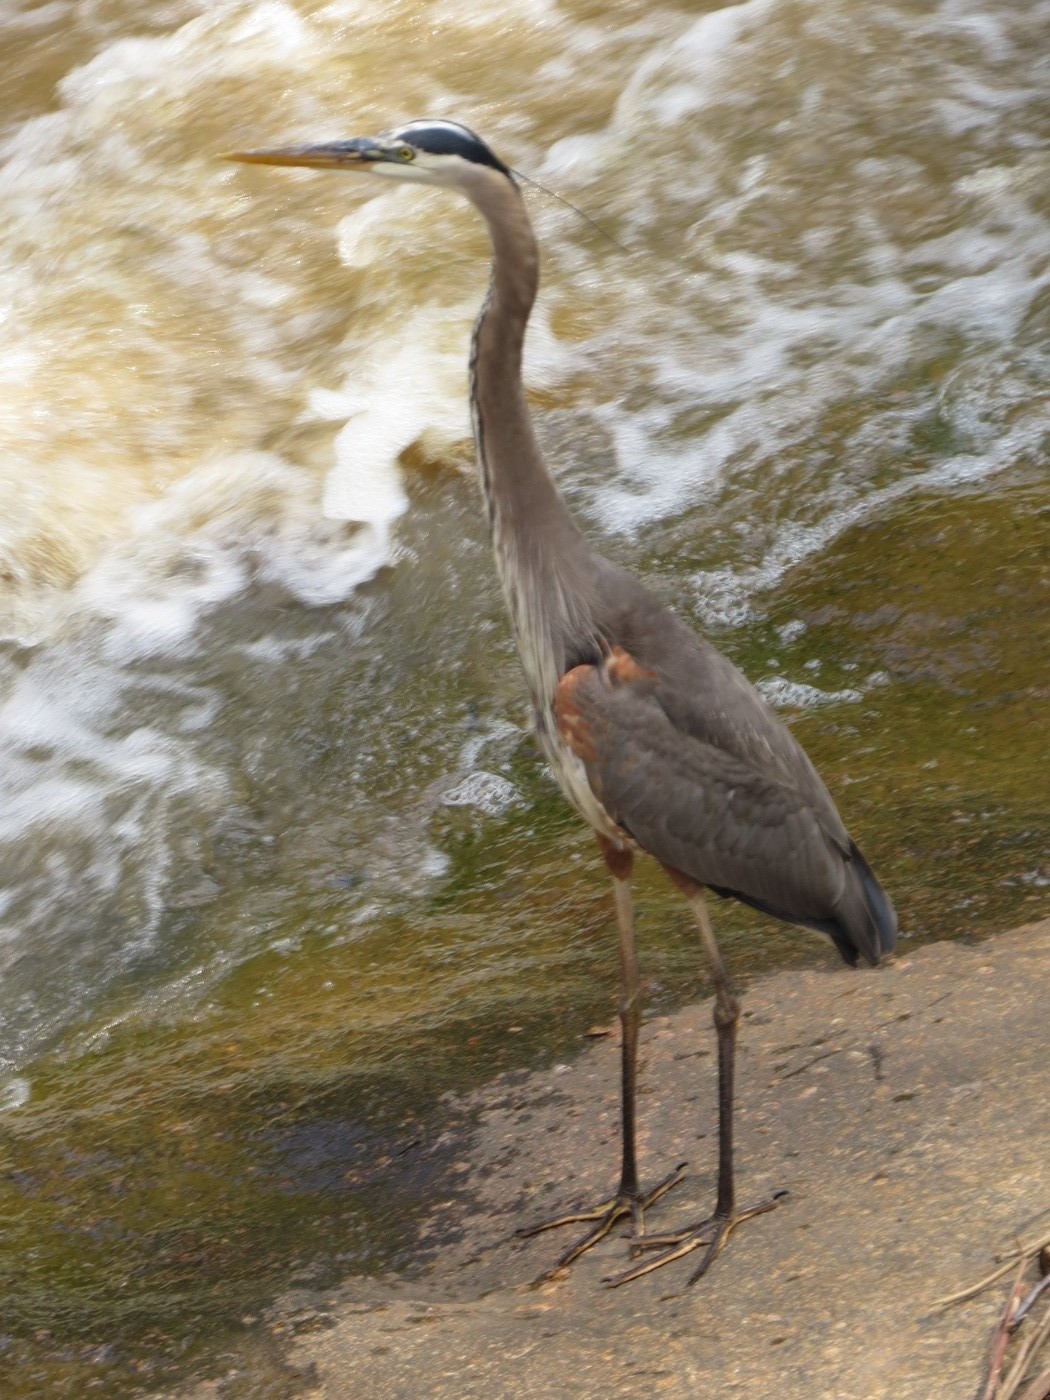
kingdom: Animalia
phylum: Chordata
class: Aves
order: Pelecaniformes
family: Ardeidae
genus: Ardea
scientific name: Ardea herodias
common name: Great blue heron
